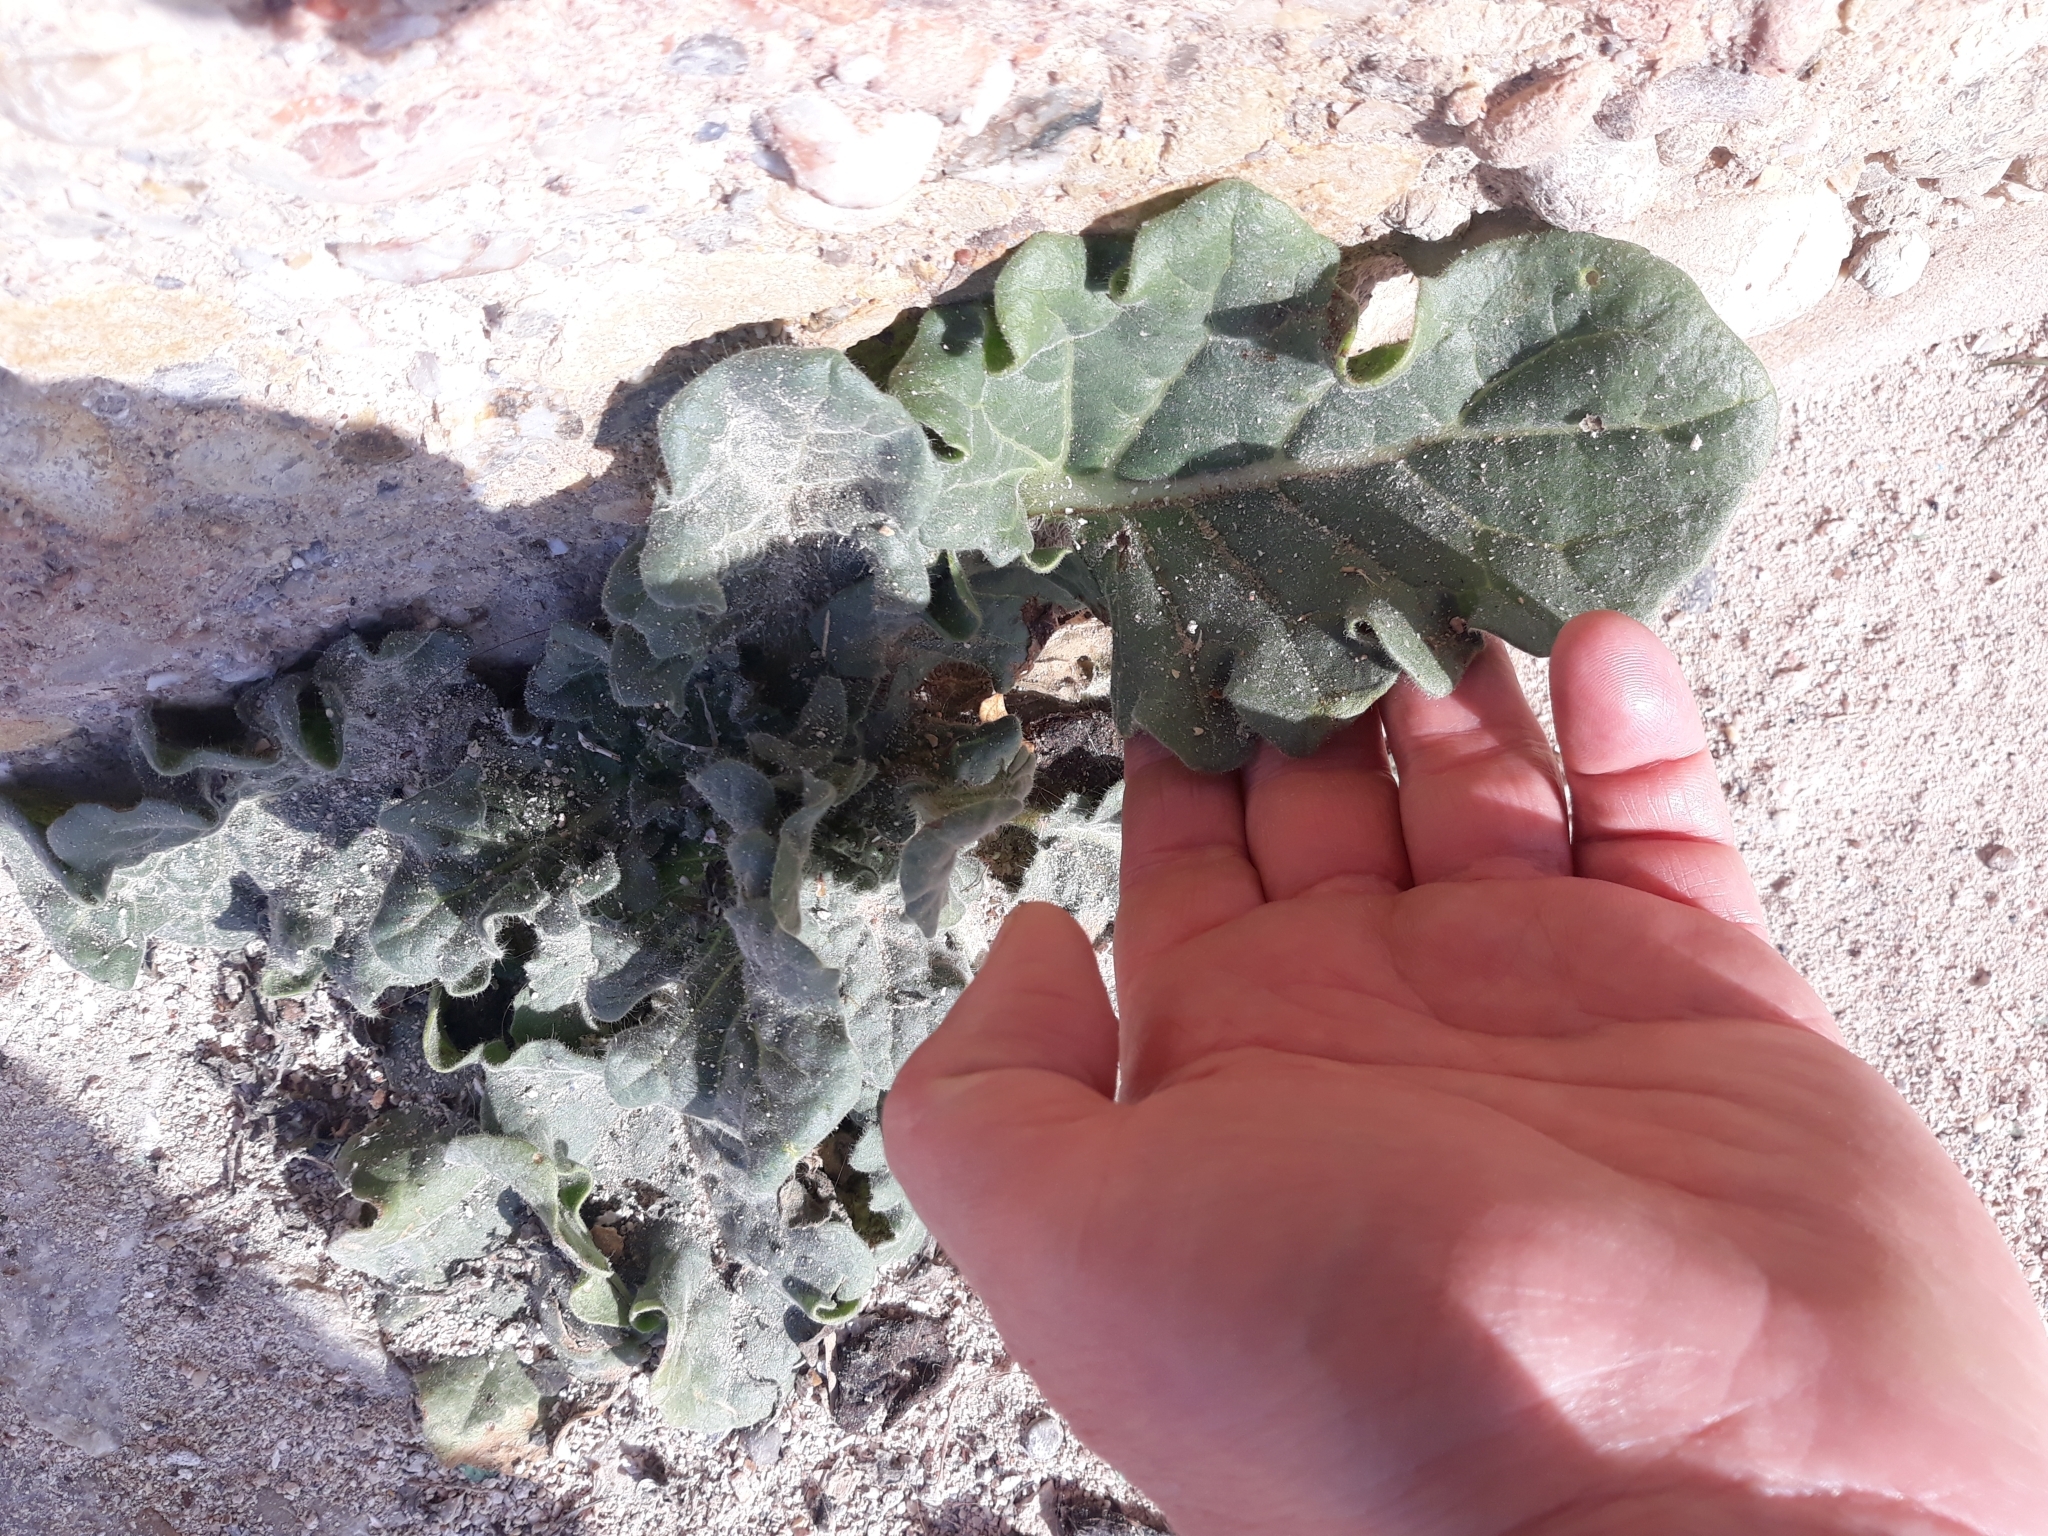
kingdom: Plantae
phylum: Tracheophyta
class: Magnoliopsida
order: Solanales
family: Solanaceae
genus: Hyoscyamus
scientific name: Hyoscyamus albus
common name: White henbane
